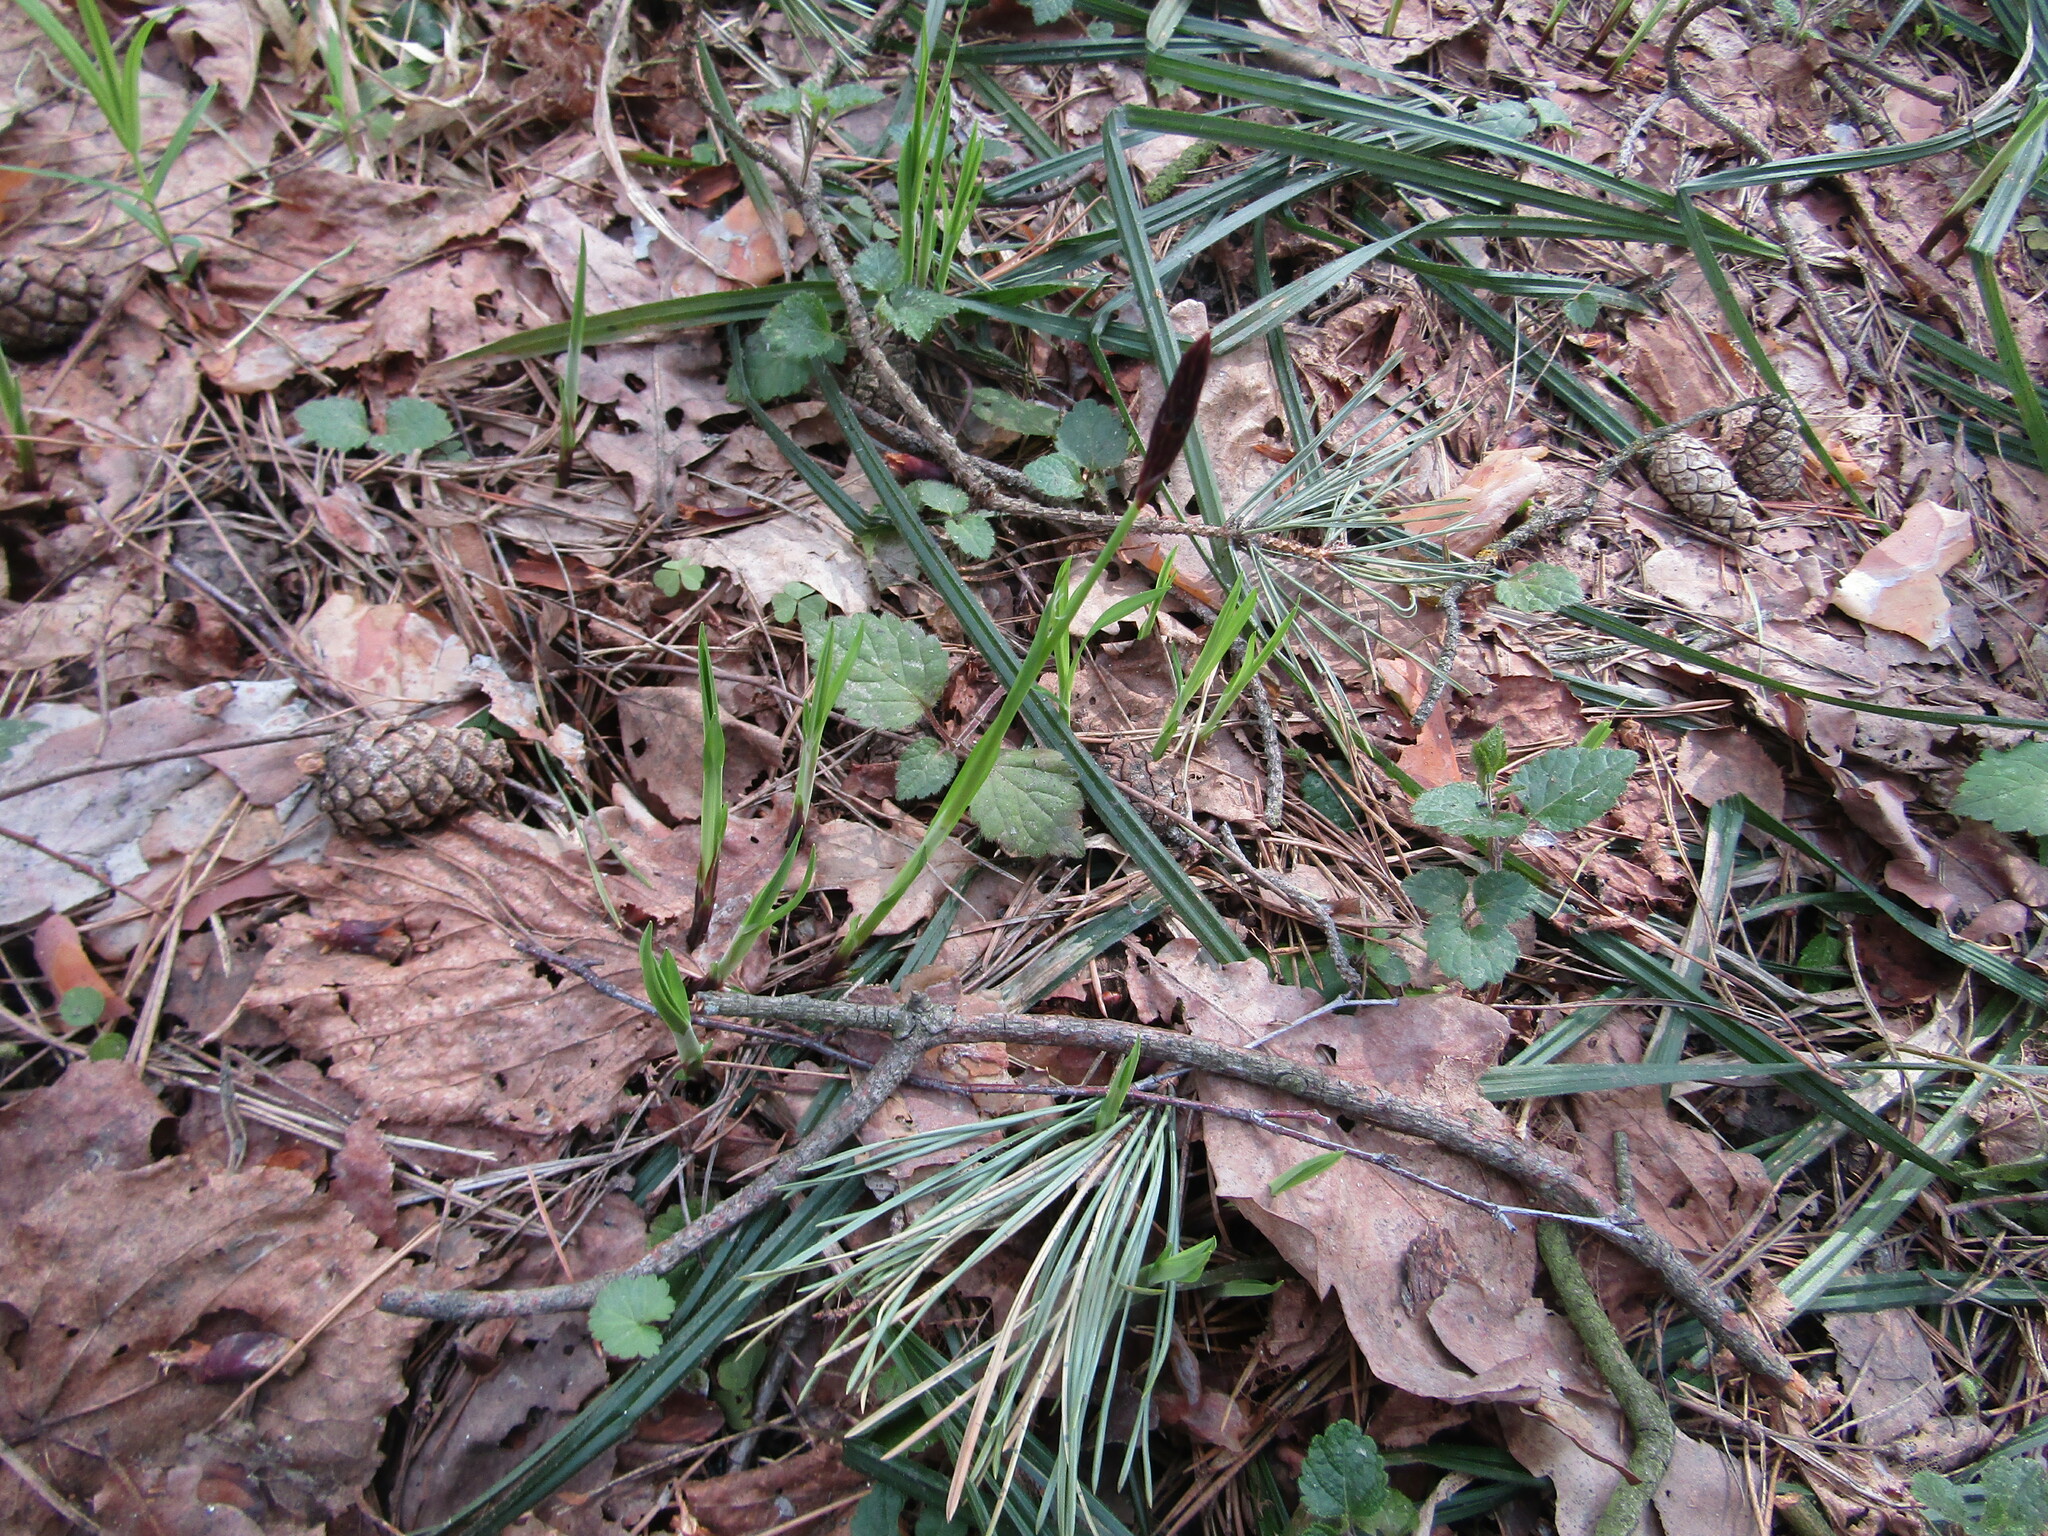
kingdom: Plantae
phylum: Tracheophyta
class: Liliopsida
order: Poales
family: Cyperaceae
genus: Carex
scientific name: Carex pilosa
